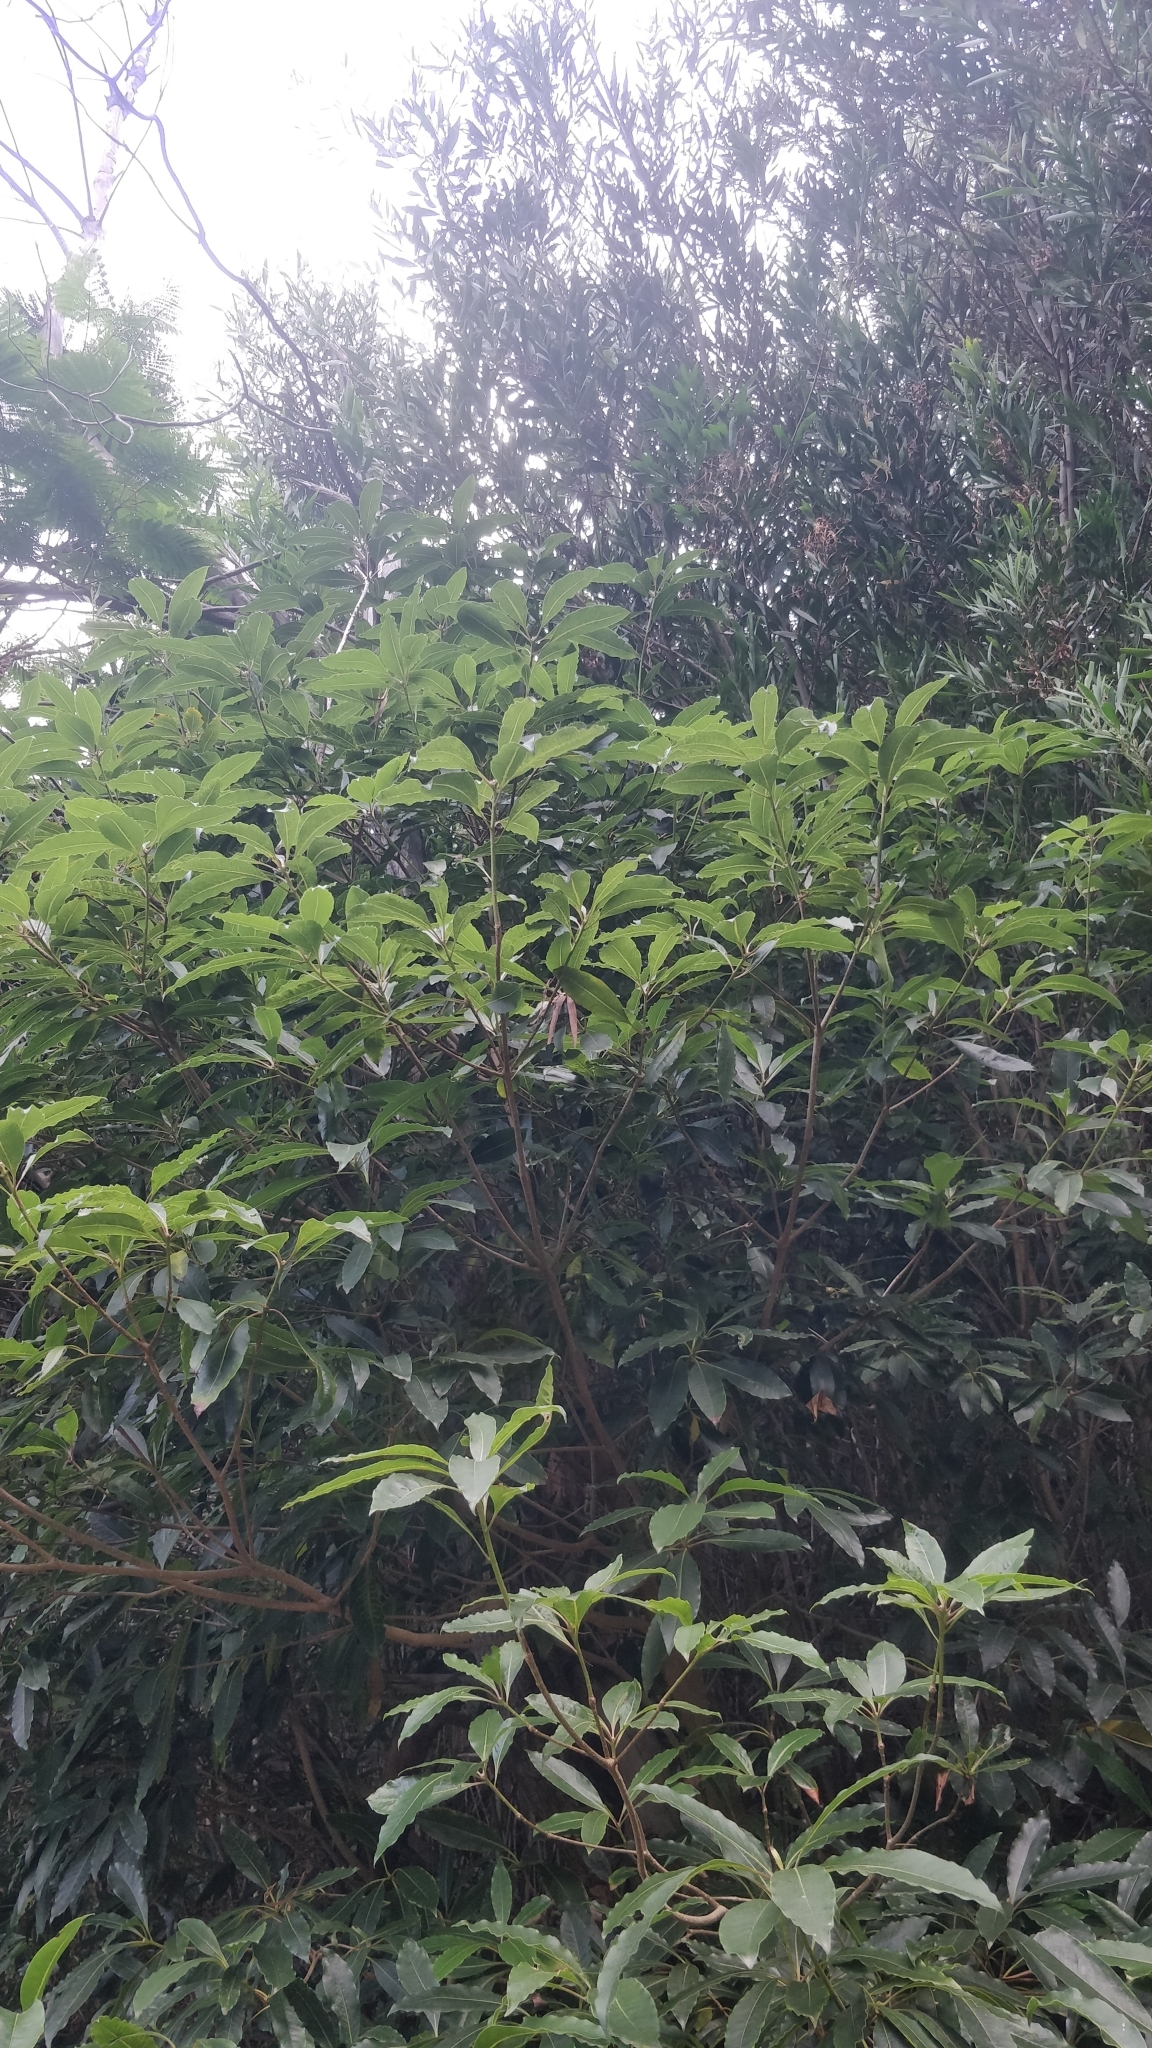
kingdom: Plantae
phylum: Tracheophyta
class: Magnoliopsida
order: Apiales
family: Pittosporaceae
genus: Pittosporum
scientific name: Pittosporum undulatum
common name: Australian cheesewood
